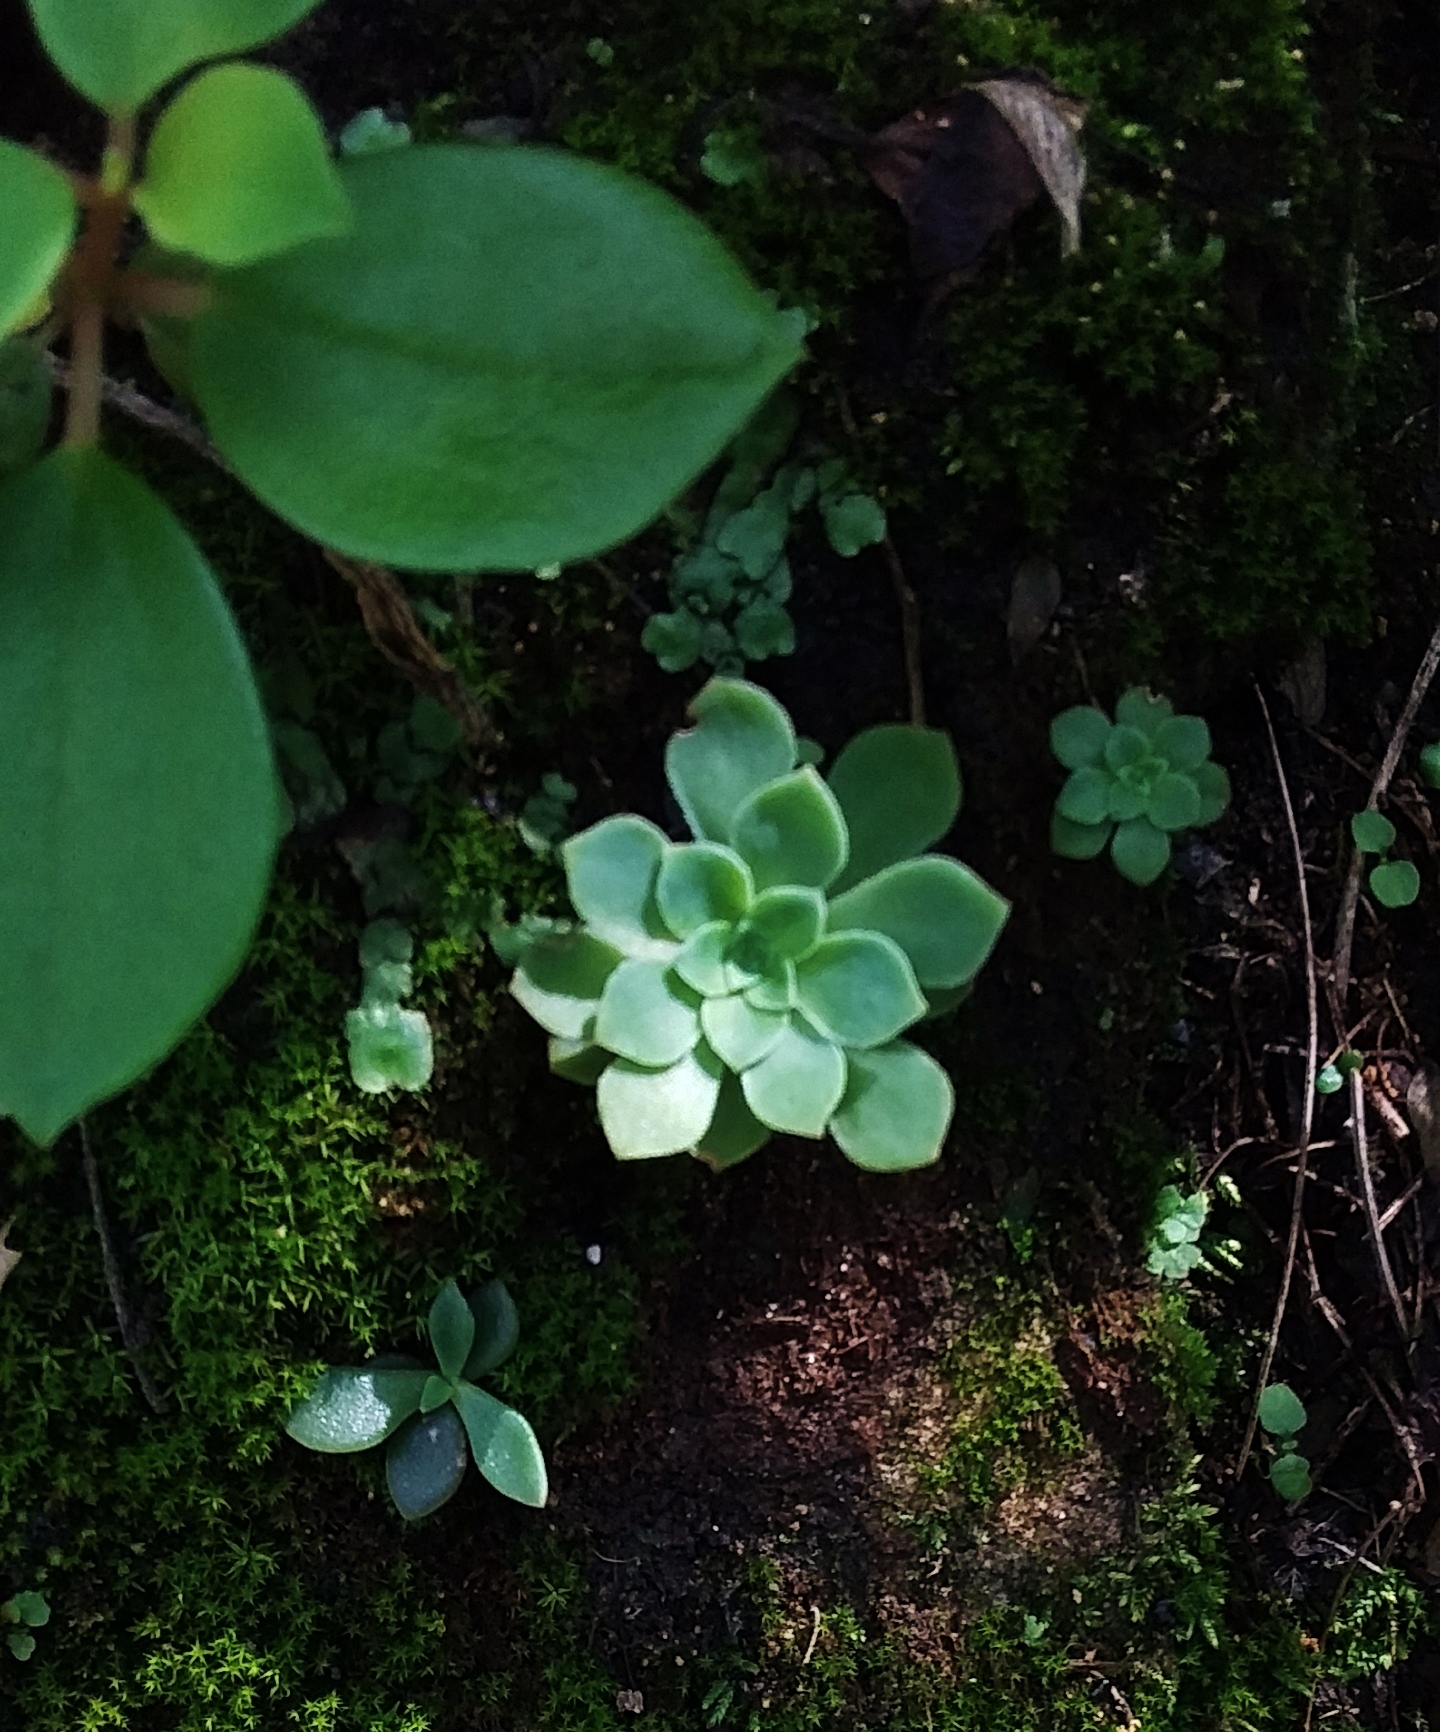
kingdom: Plantae
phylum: Tracheophyta
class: Magnoliopsida
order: Saxifragales
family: Crassulaceae
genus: Sedum
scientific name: Sedum palmeri
